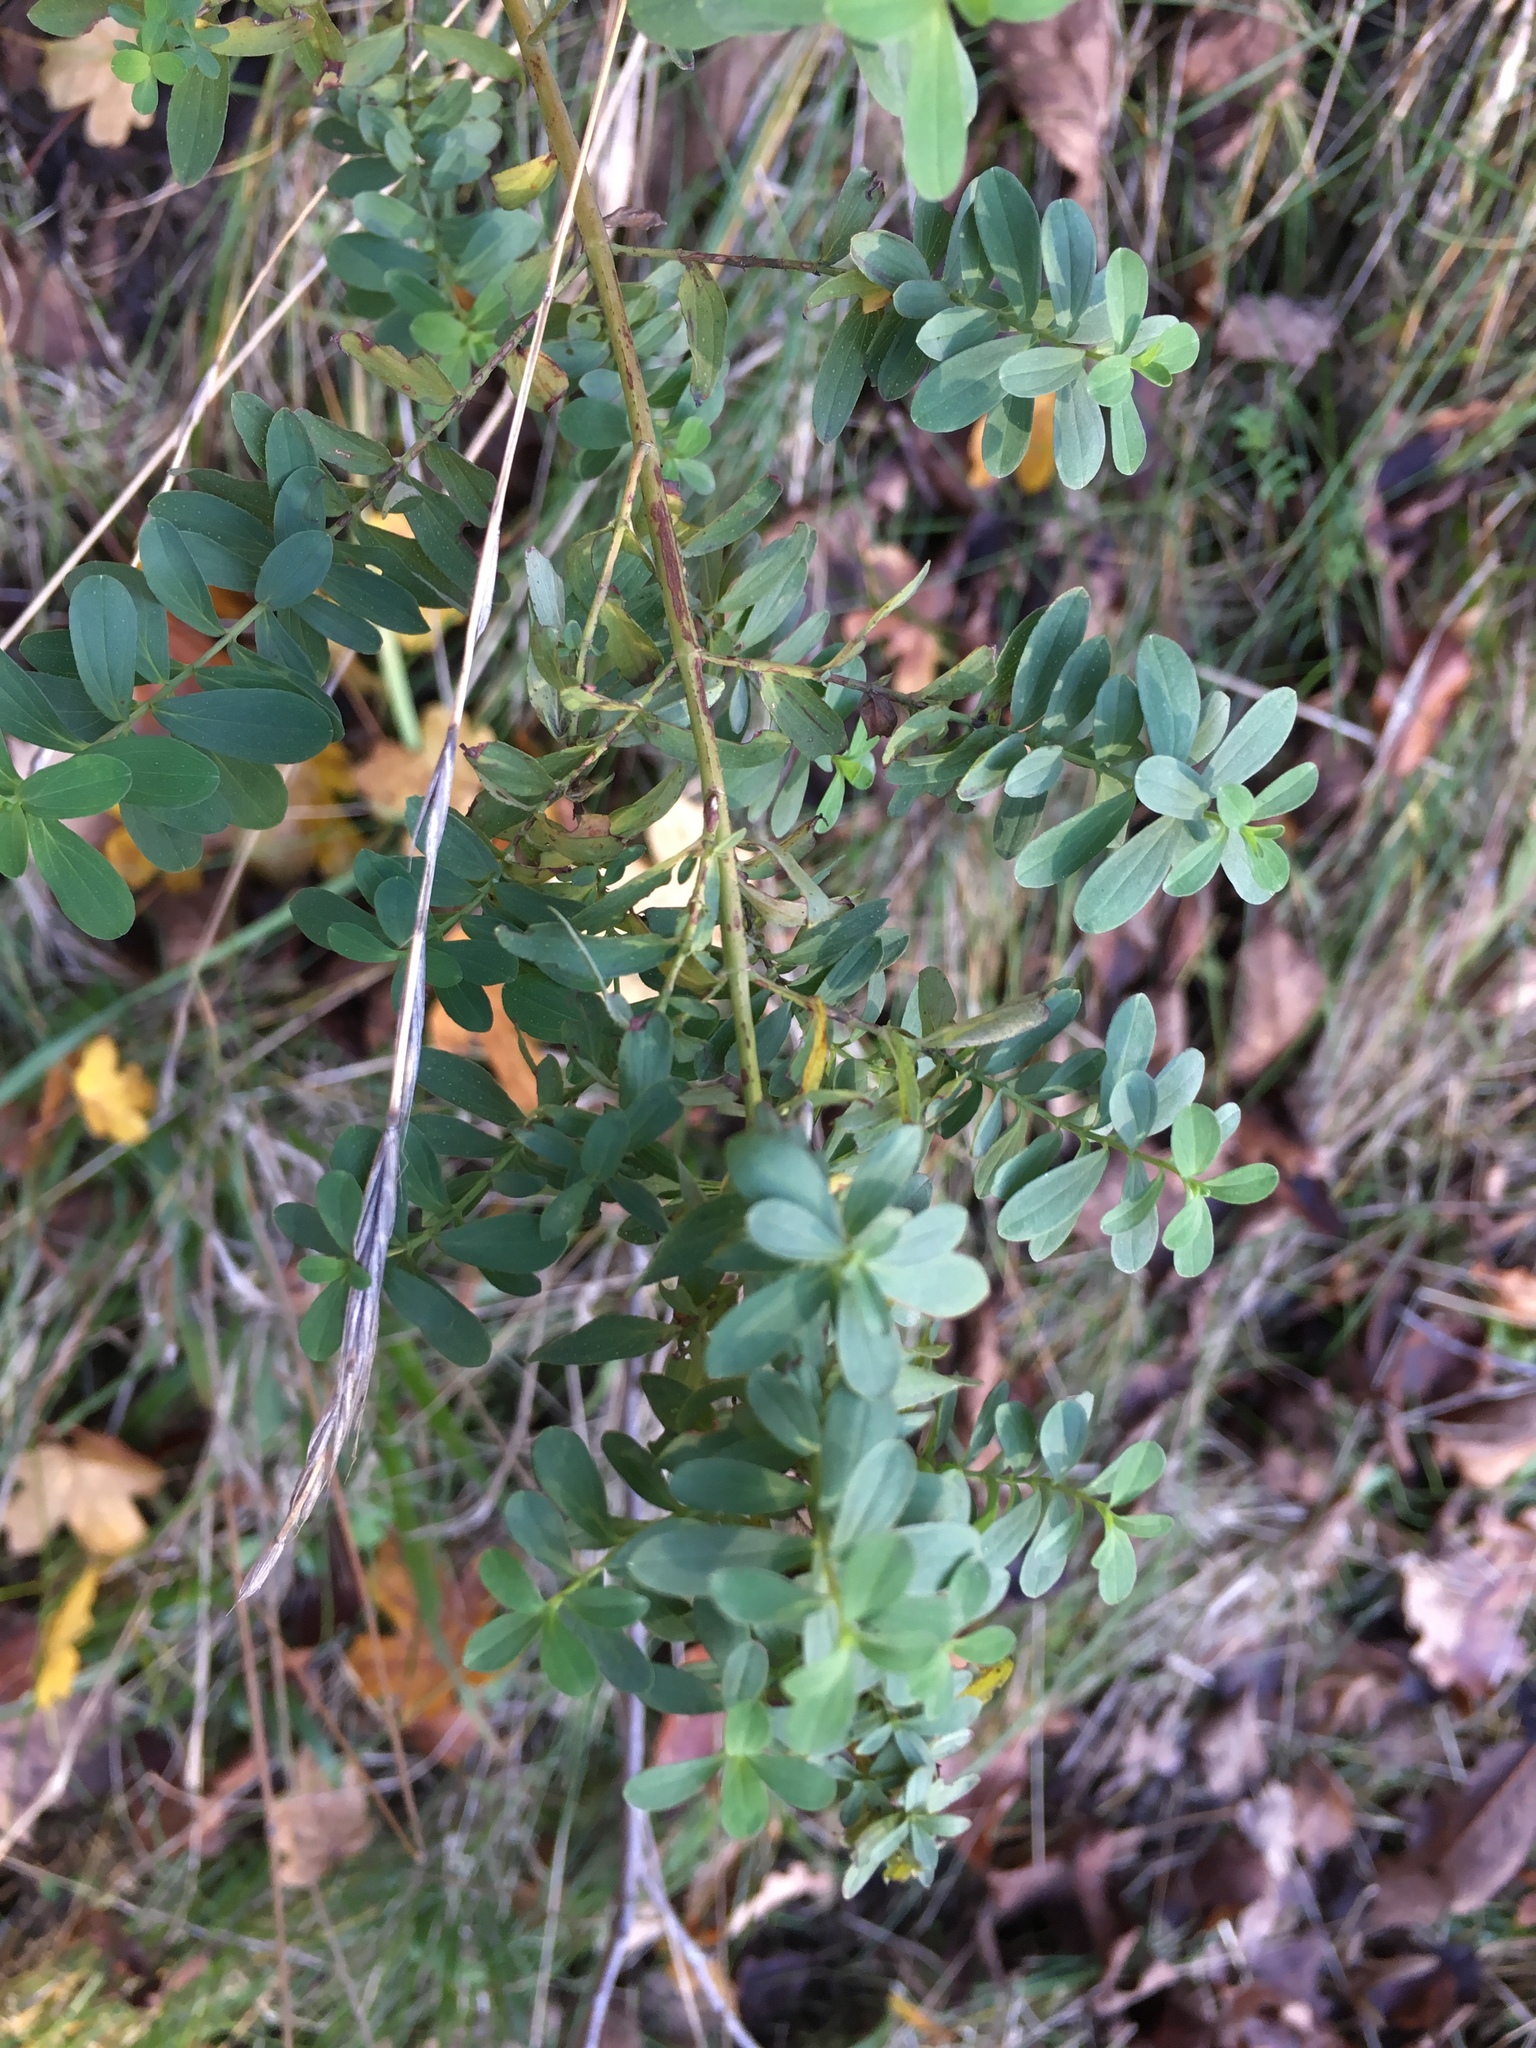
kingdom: Plantae
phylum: Tracheophyta
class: Magnoliopsida
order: Malpighiales
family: Hypericaceae
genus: Hypericum
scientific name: Hypericum maculatum
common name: Imperforate st. john's-wort
